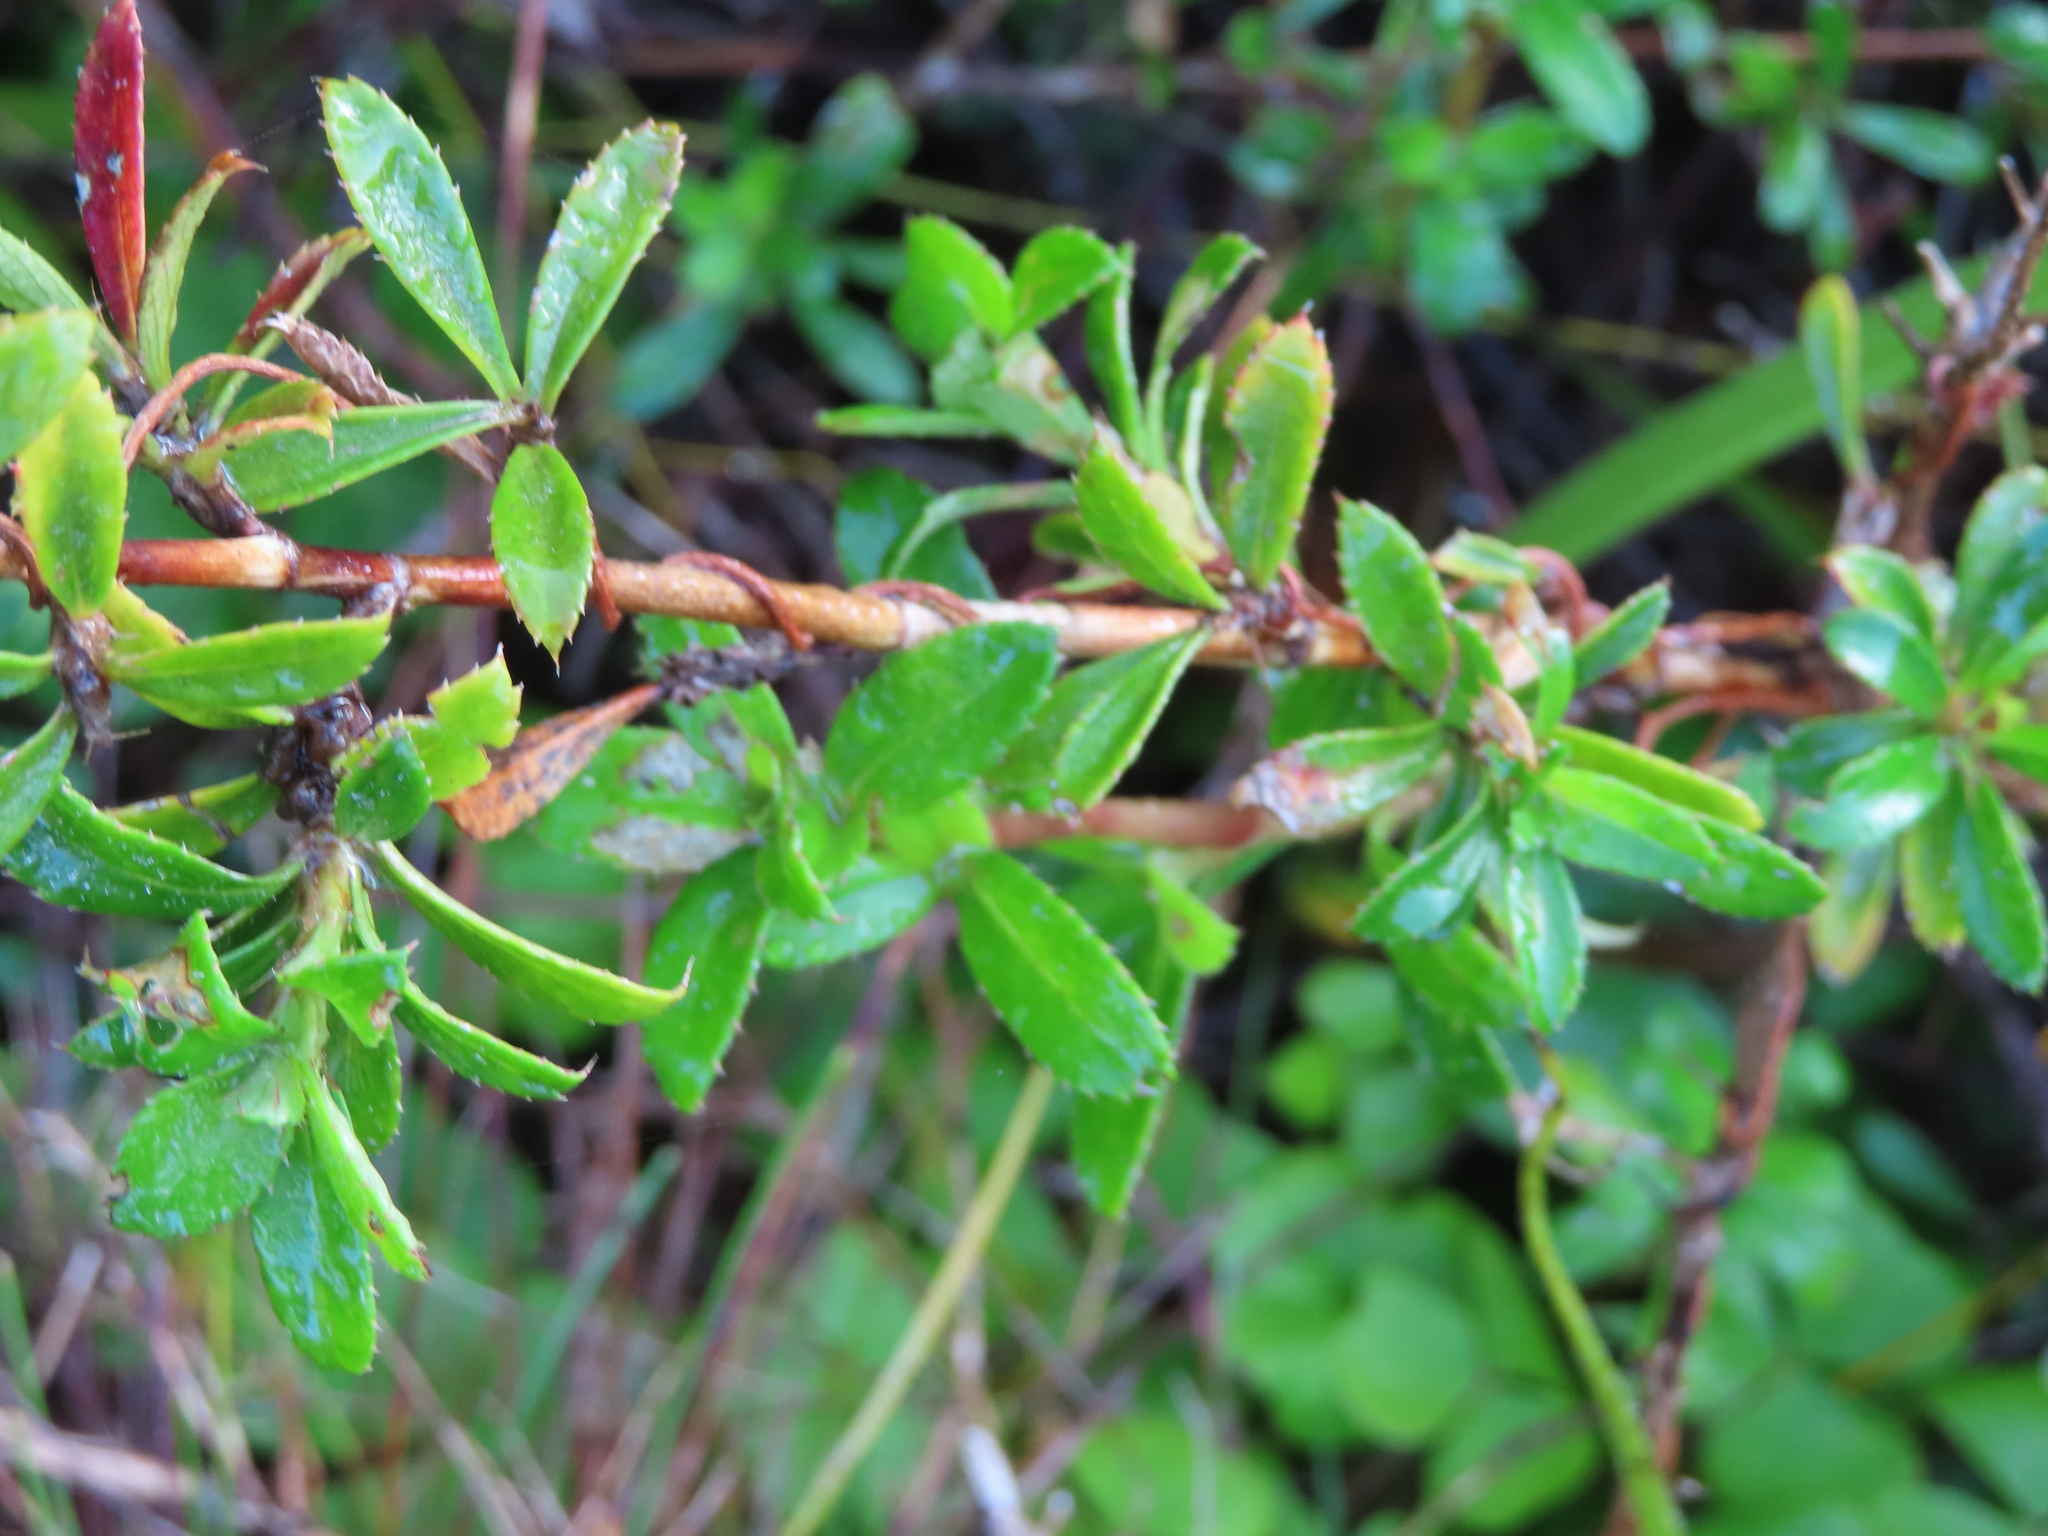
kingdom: Plantae
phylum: Tracheophyta
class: Magnoliopsida
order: Rosales
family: Rosaceae
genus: Cliffortia
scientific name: Cliffortia ferruginea
